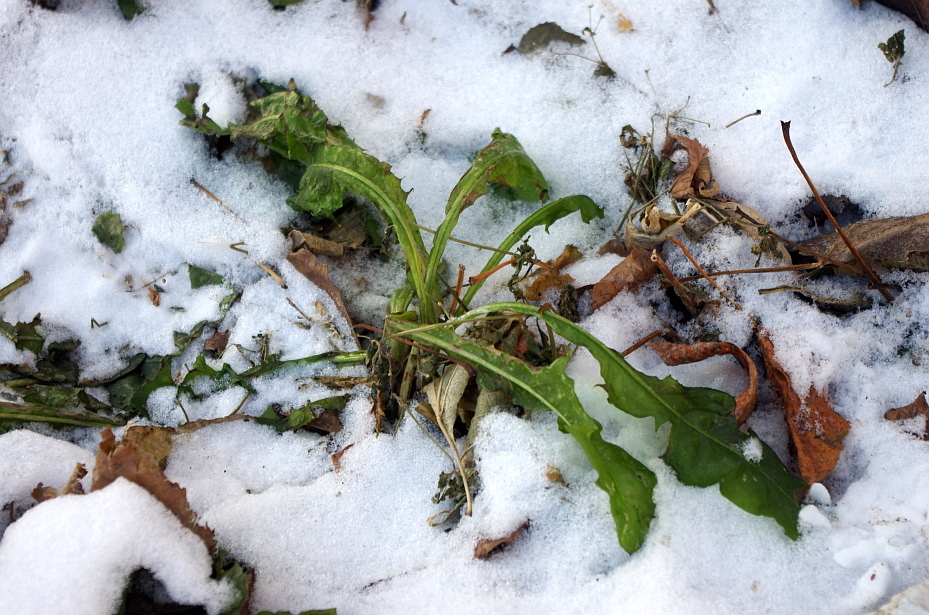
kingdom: Plantae
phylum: Tracheophyta
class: Magnoliopsida
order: Asterales
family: Asteraceae
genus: Taraxacum
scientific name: Taraxacum officinale
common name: Common dandelion
